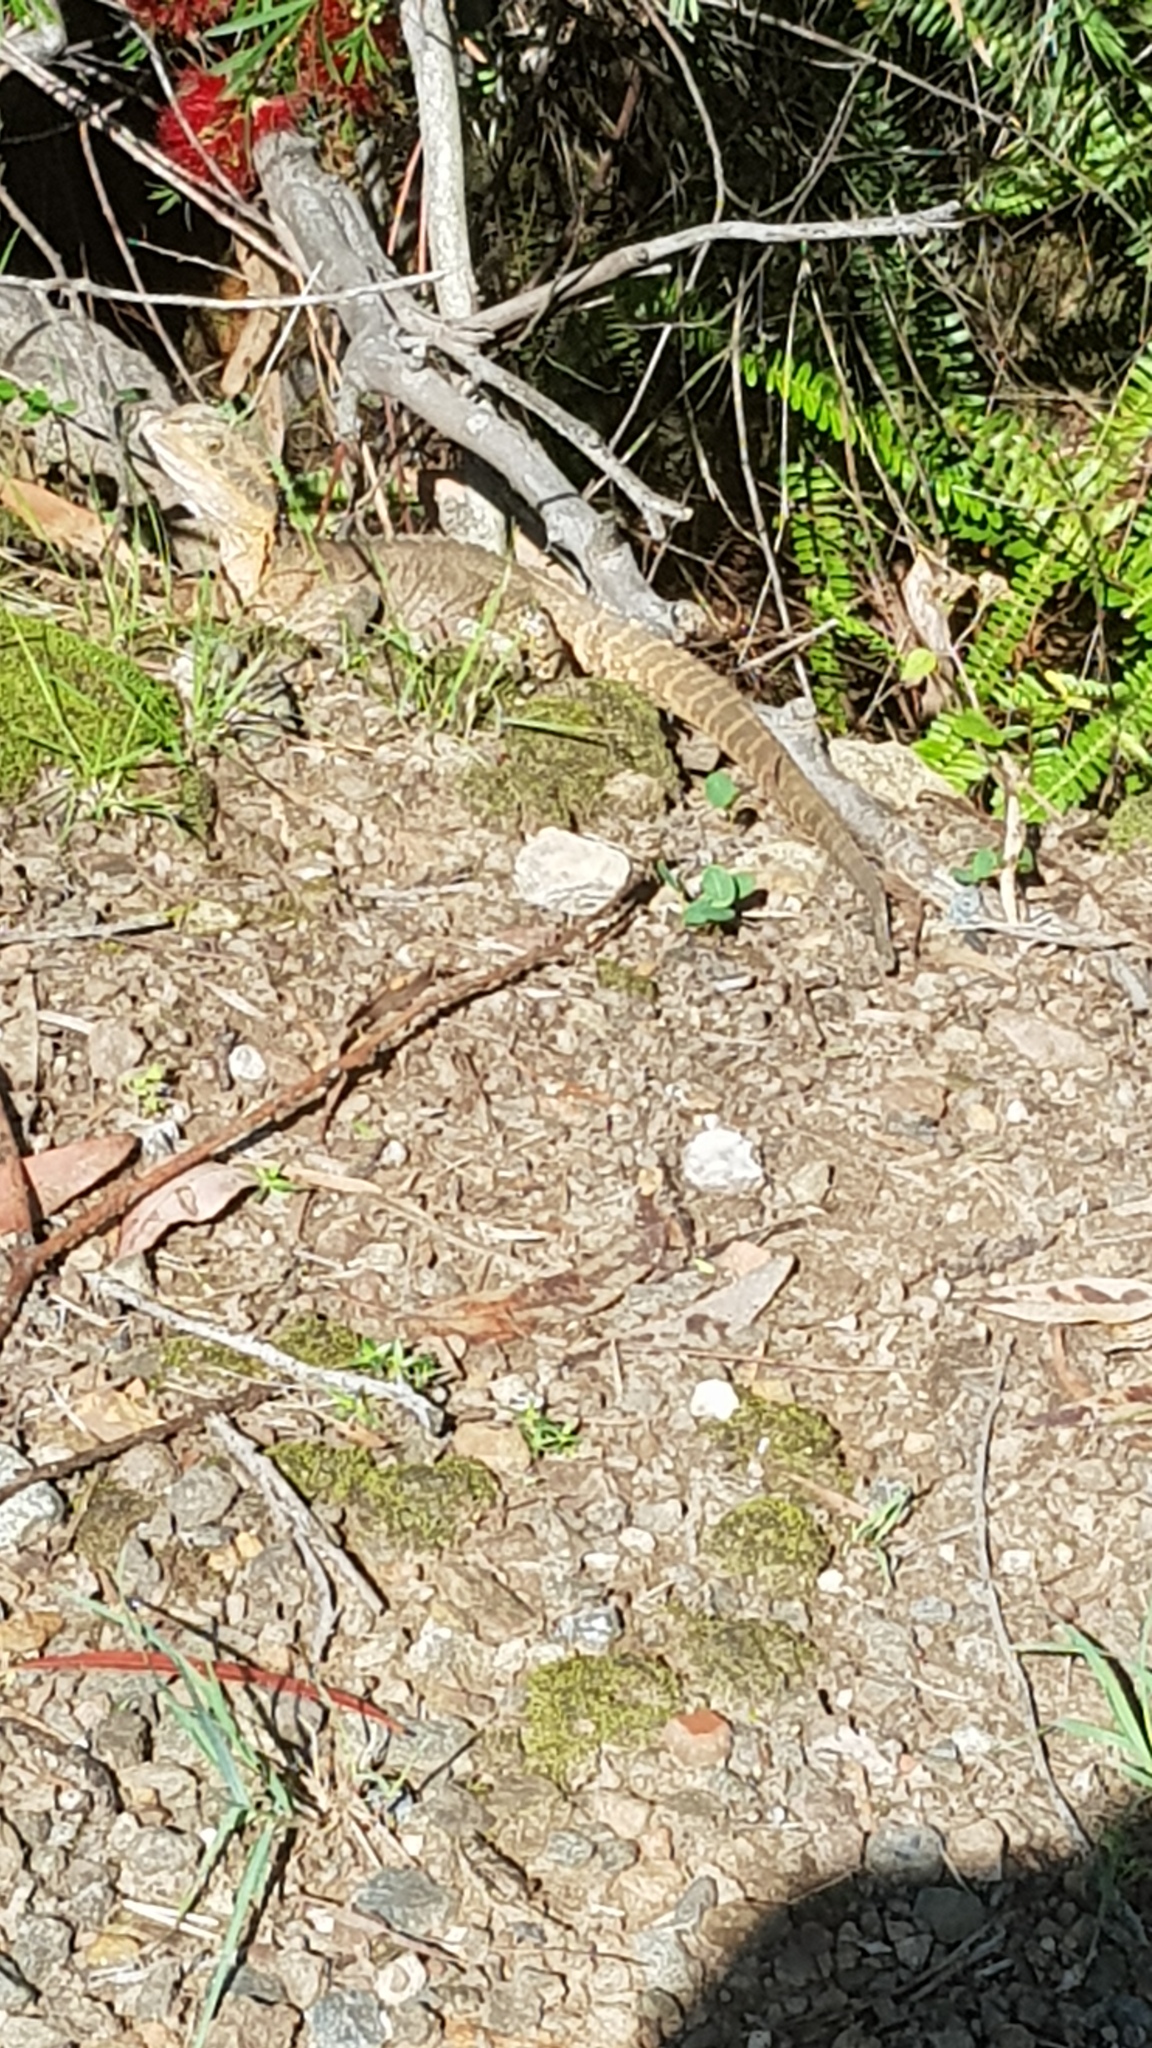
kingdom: Animalia
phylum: Chordata
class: Squamata
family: Agamidae
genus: Intellagama
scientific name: Intellagama lesueurii
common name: Eastern water dragon
